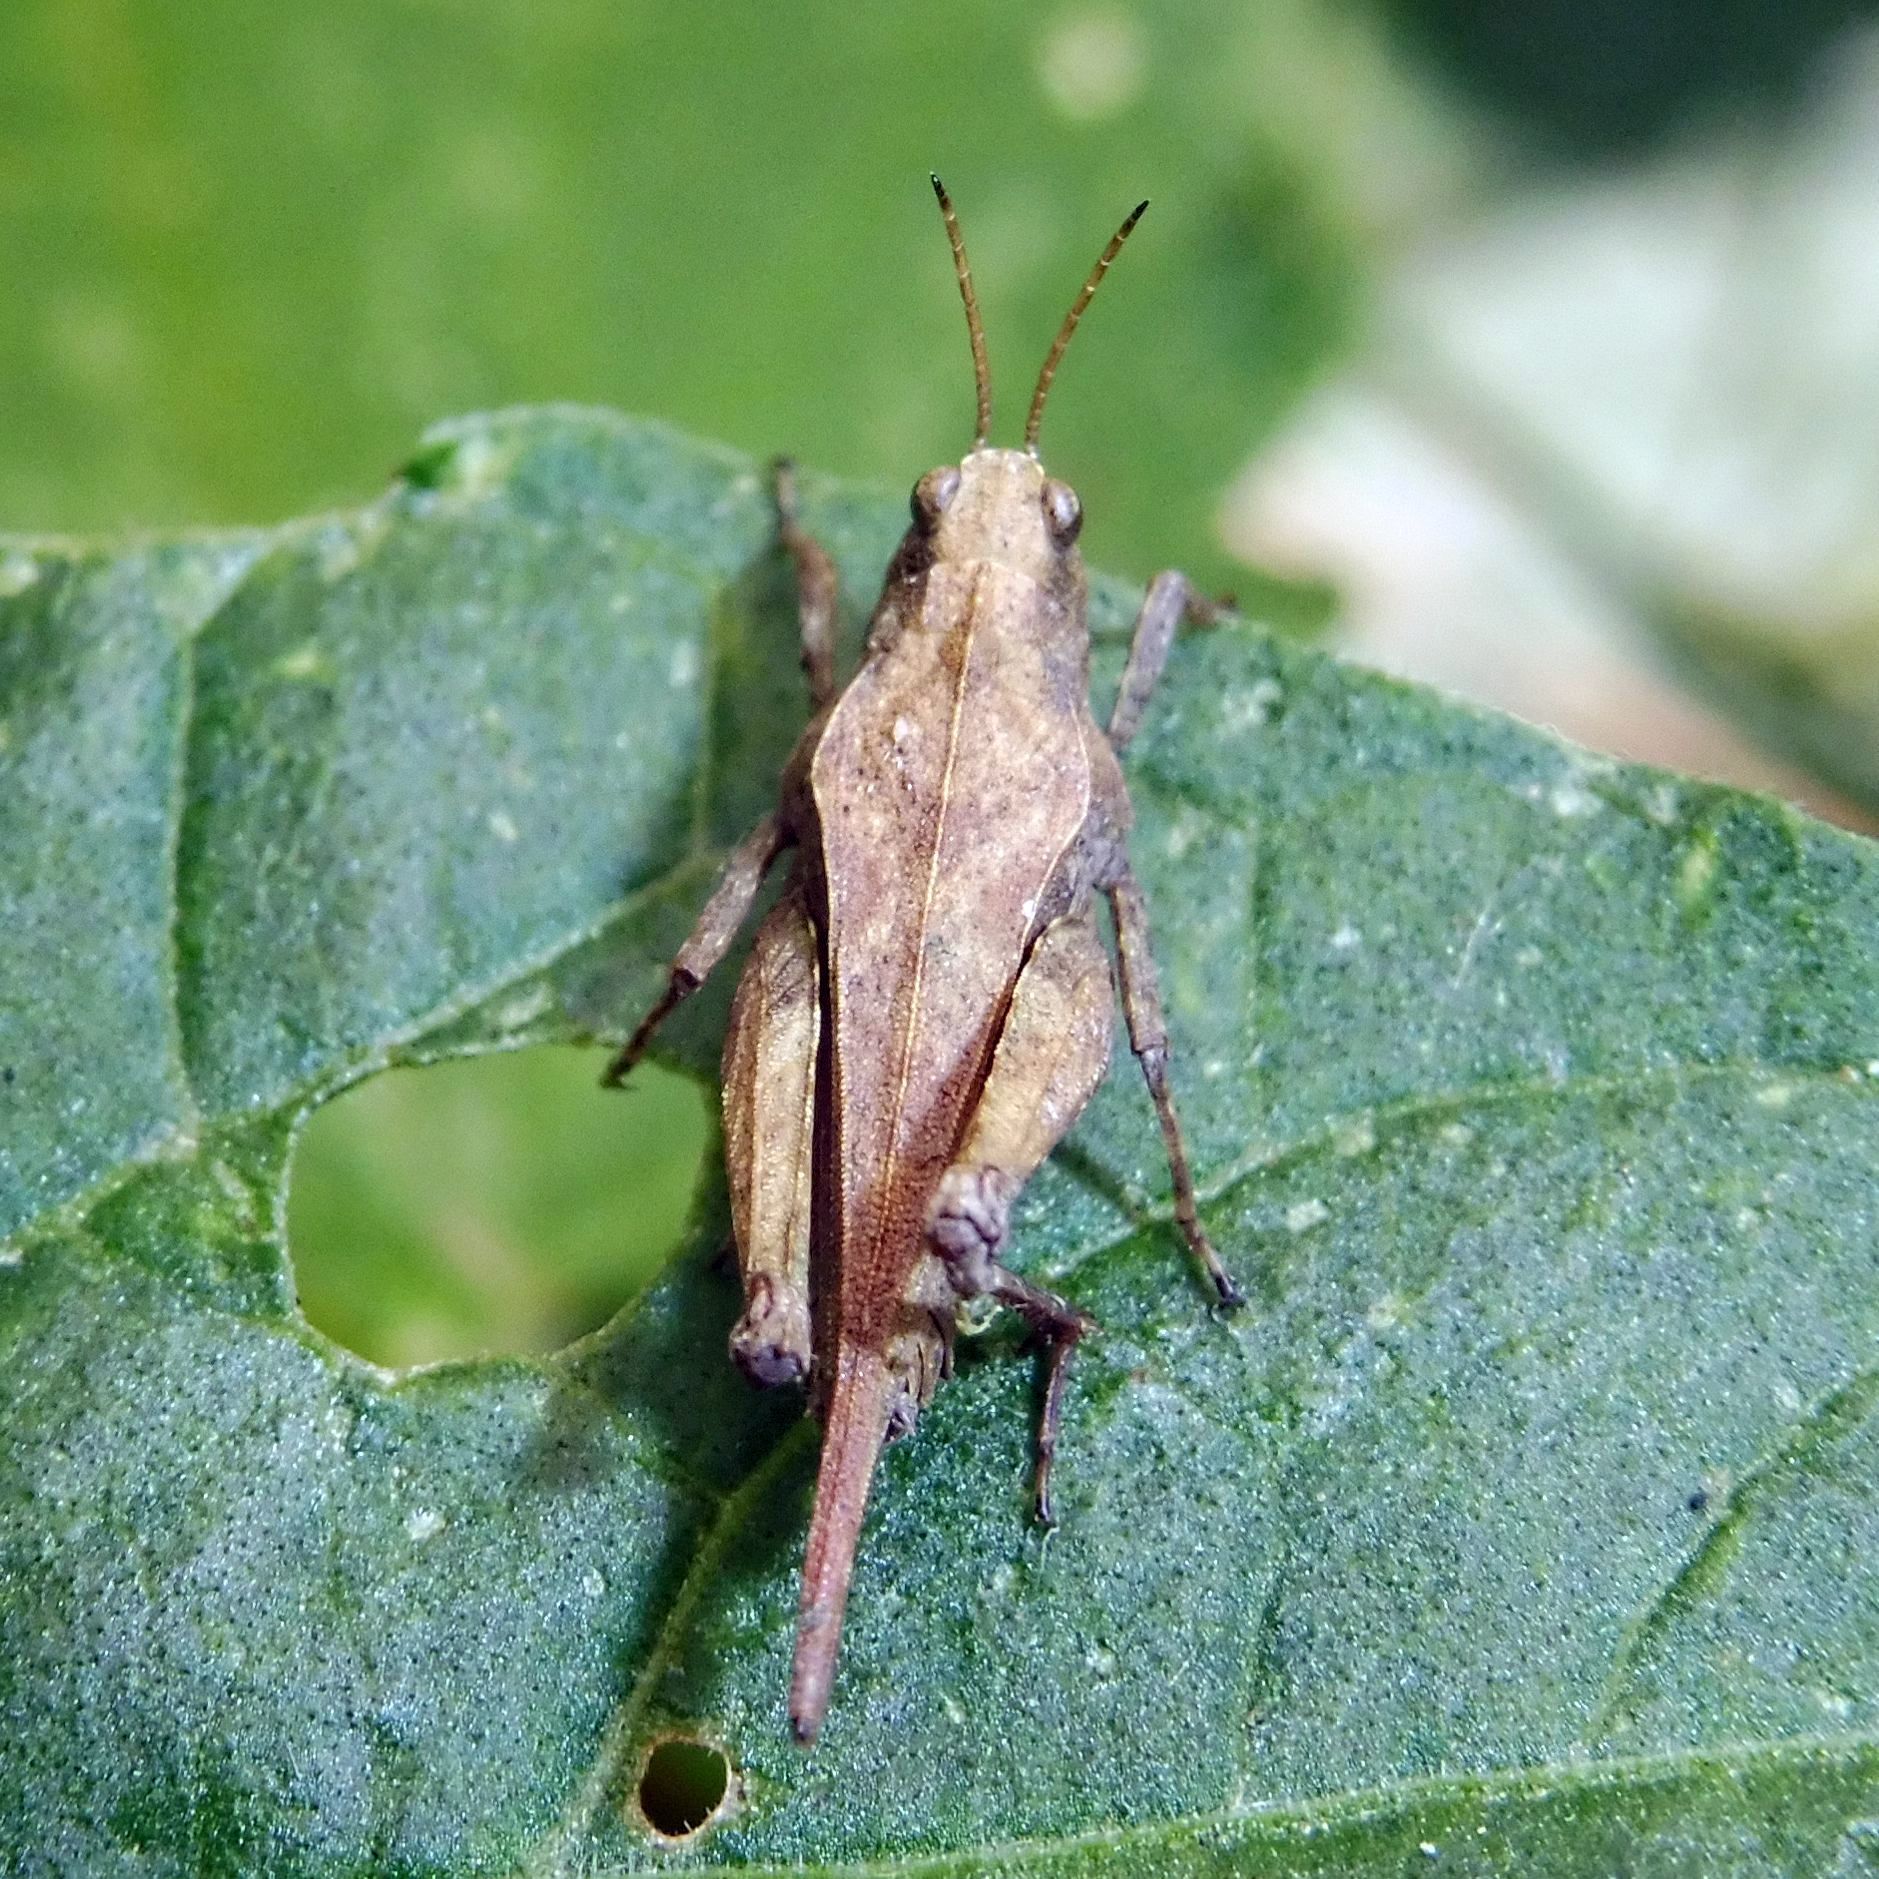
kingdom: Animalia
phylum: Arthropoda
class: Insecta
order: Orthoptera
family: Tetrigidae
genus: Tetrix
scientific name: Tetrix subulata
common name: Slender ground-hopper
